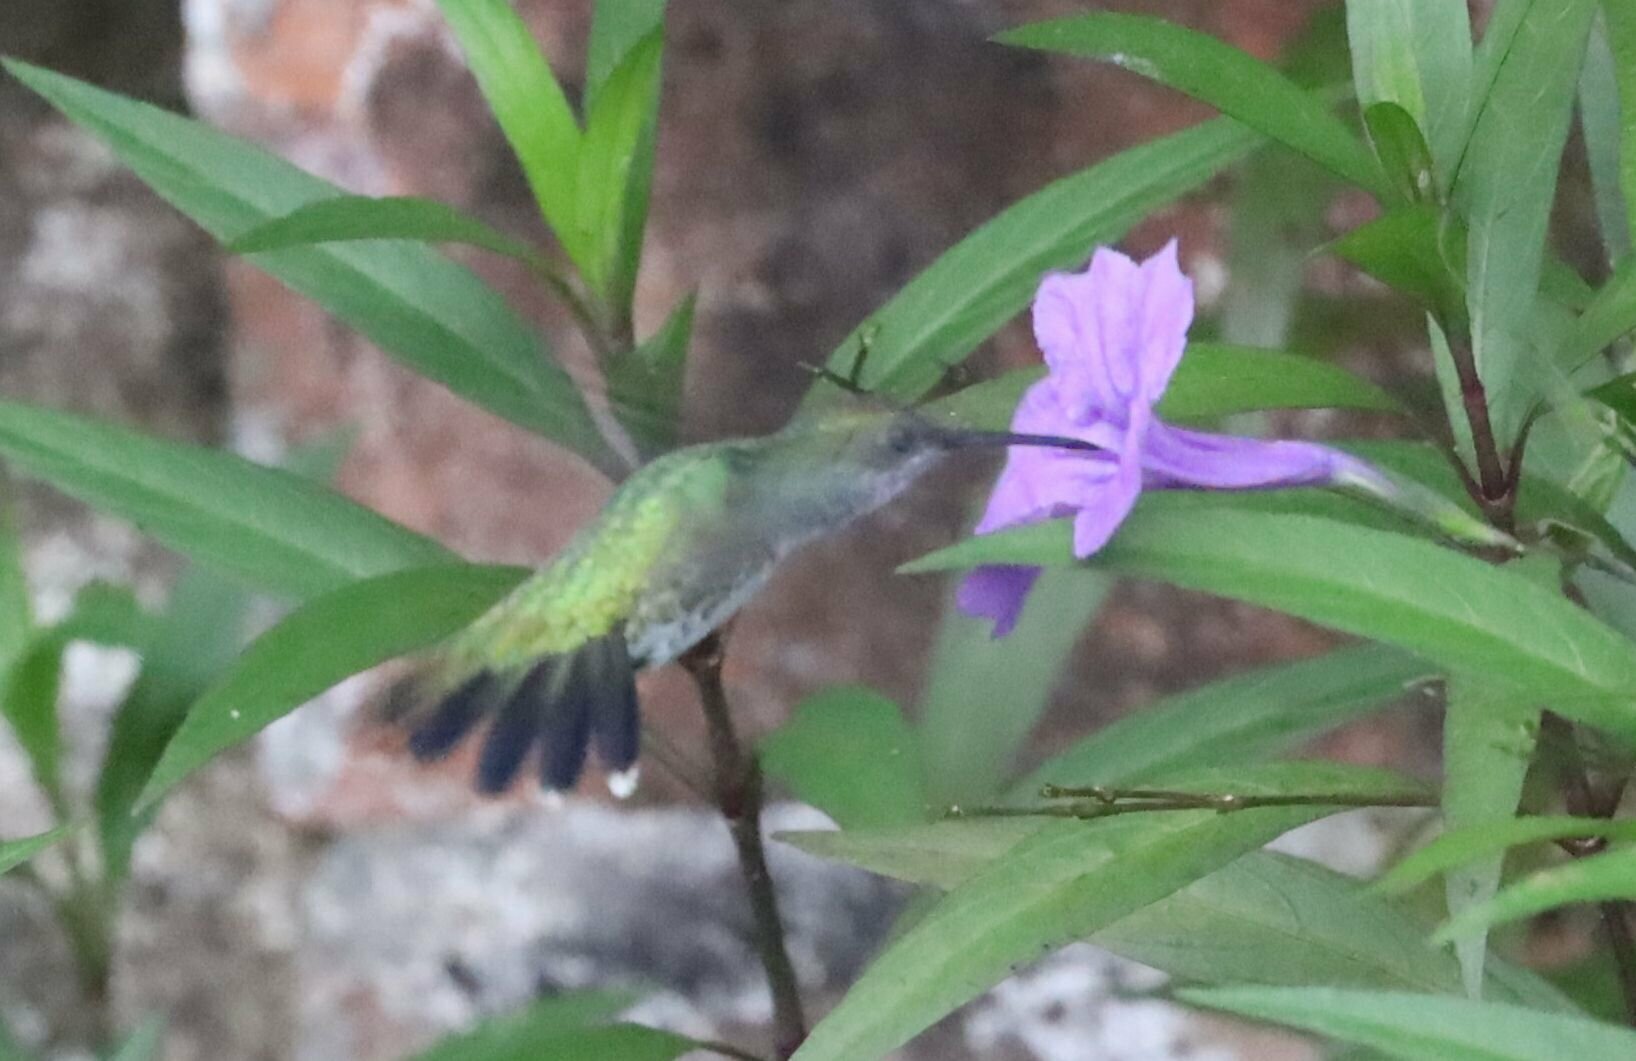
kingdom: Animalia
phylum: Chordata
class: Aves
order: Apodiformes
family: Trochilidae
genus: Chrysuronia
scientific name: Chrysuronia coeruleogularis
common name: Sapphire-throated hummingbird
